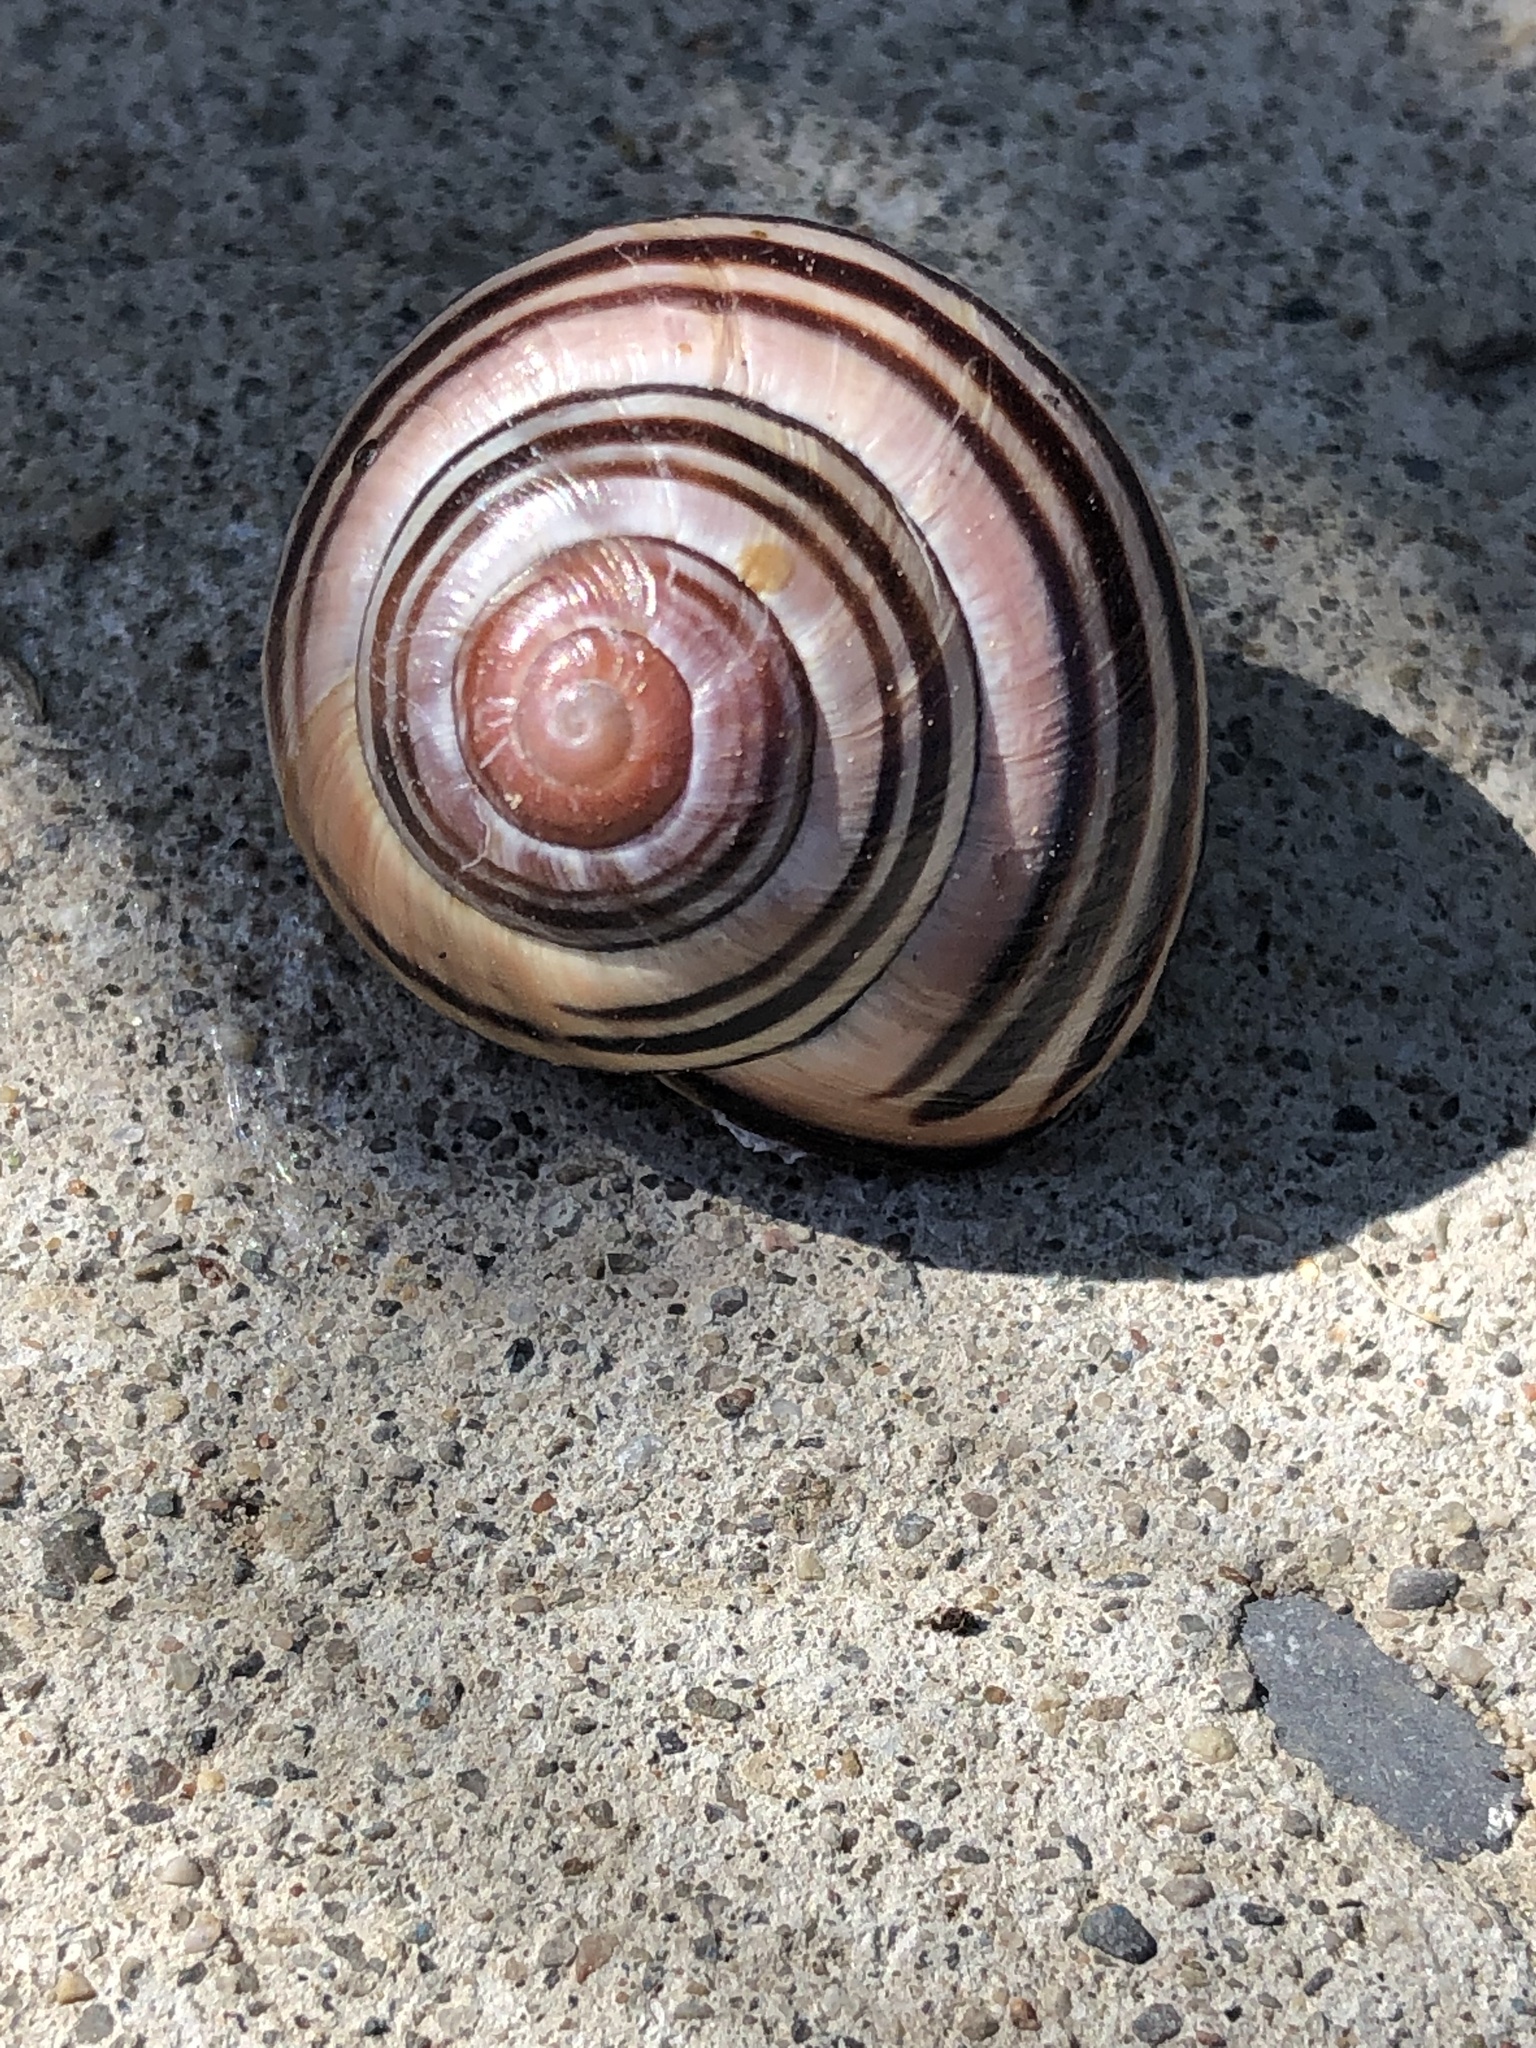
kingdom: Animalia
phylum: Mollusca
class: Gastropoda
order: Stylommatophora
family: Helicidae
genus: Cepaea
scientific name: Cepaea nemoralis
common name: Grovesnail
